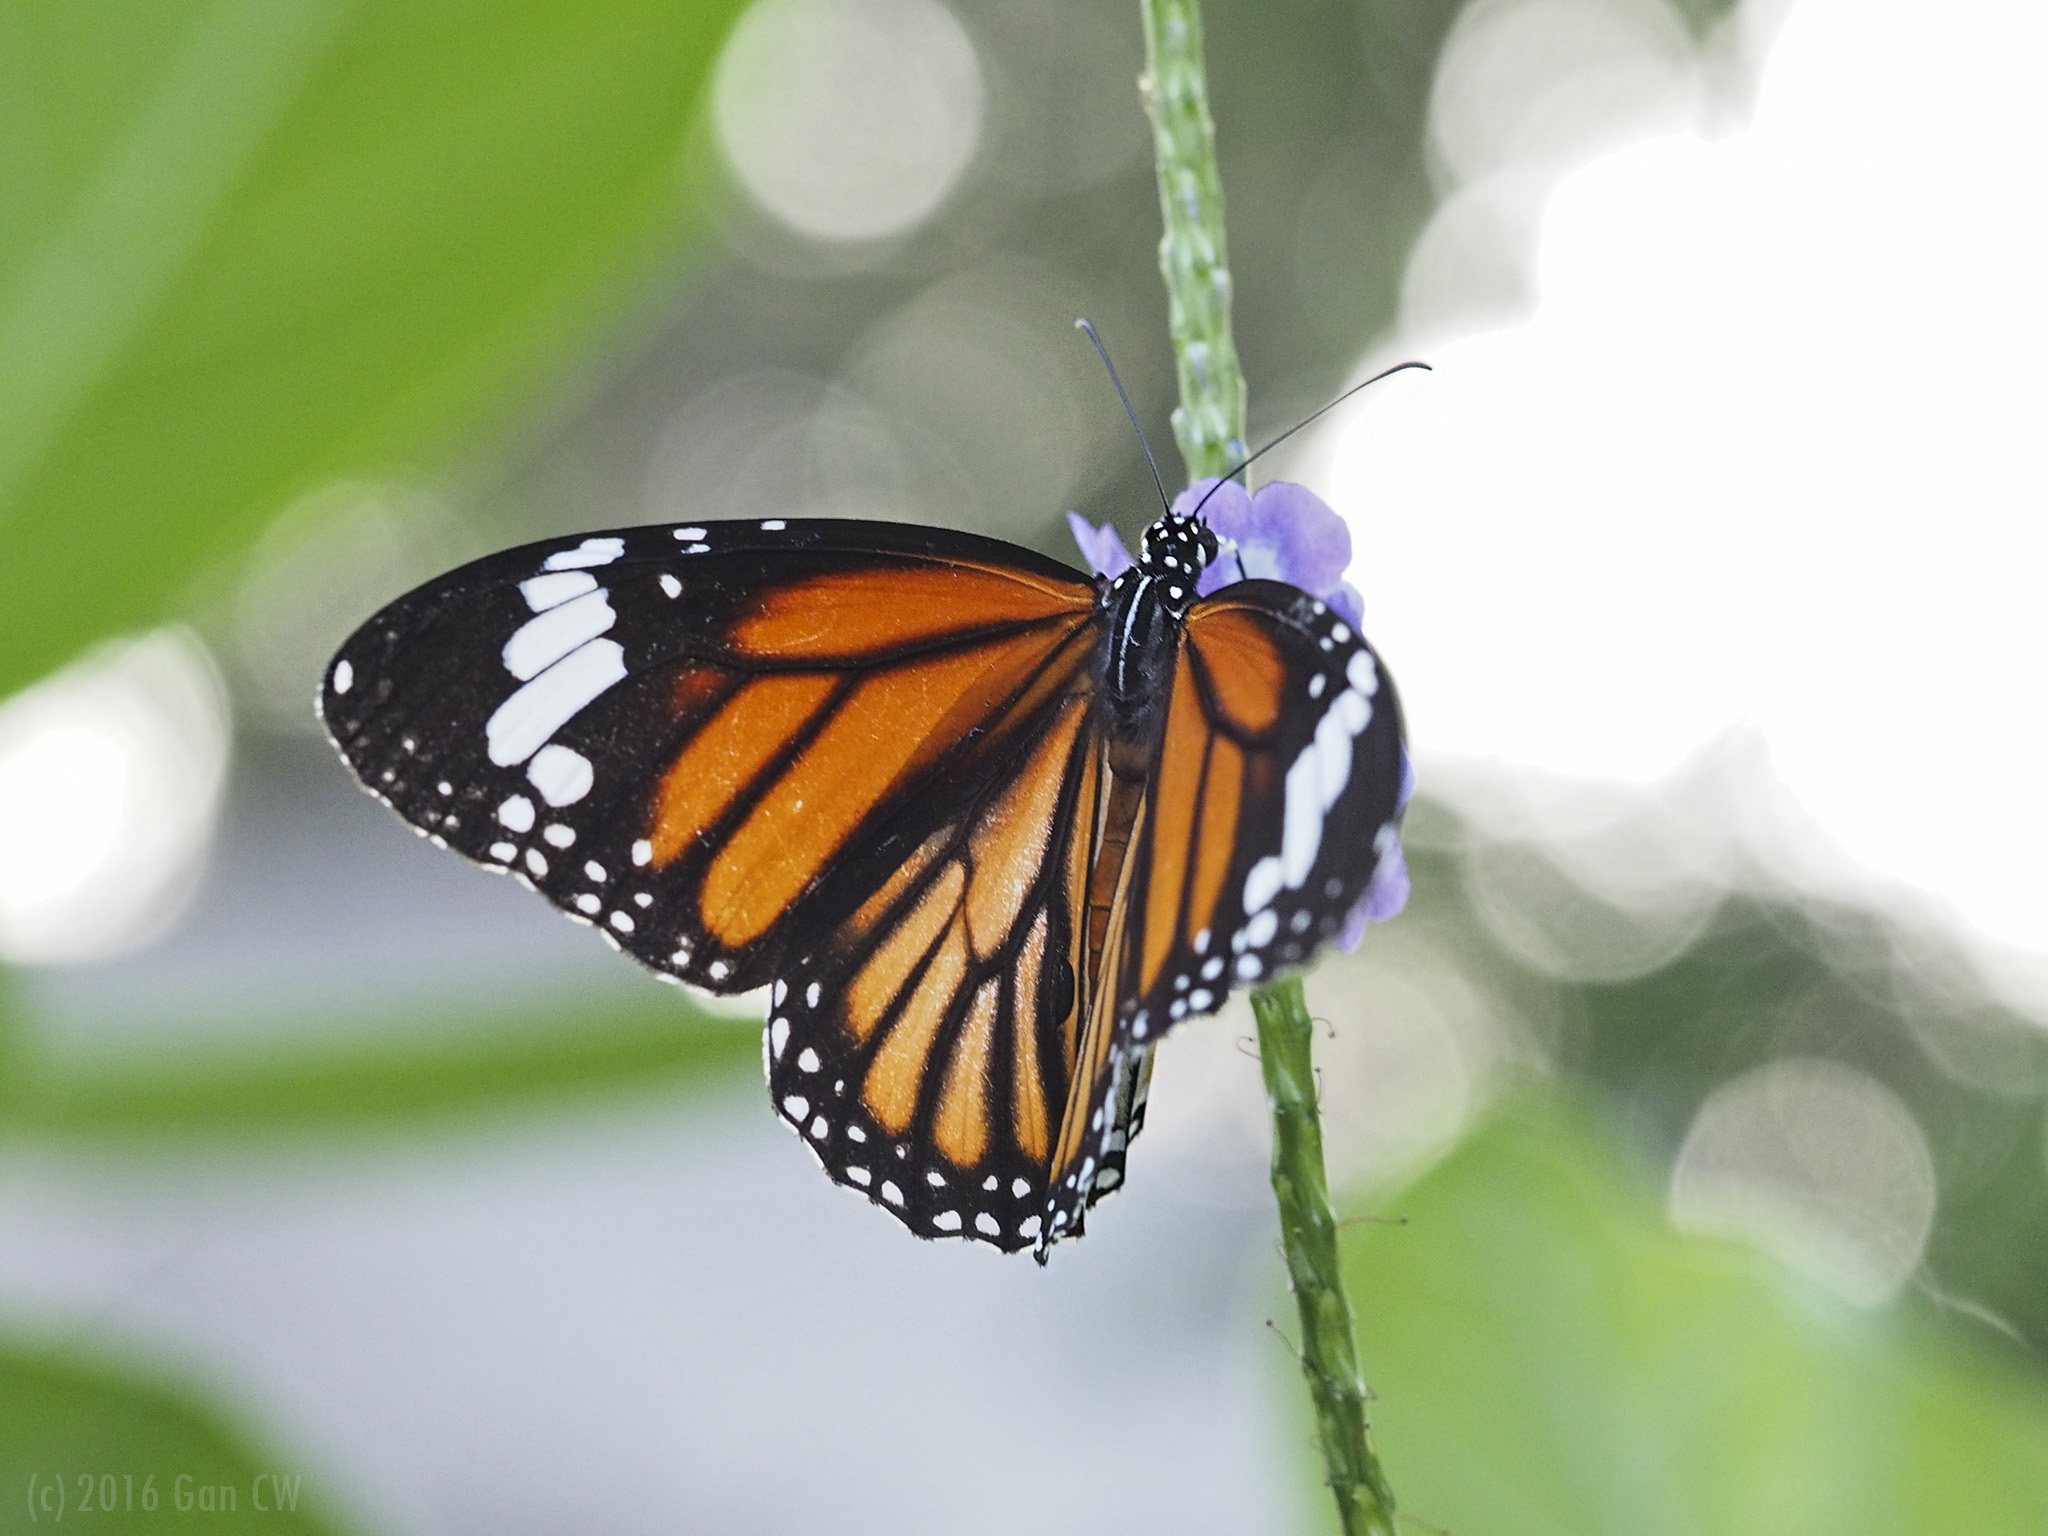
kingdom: Animalia
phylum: Arthropoda
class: Insecta
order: Lepidoptera
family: Nymphalidae
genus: Danaus
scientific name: Danaus genutia
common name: Common tiger butterfly
